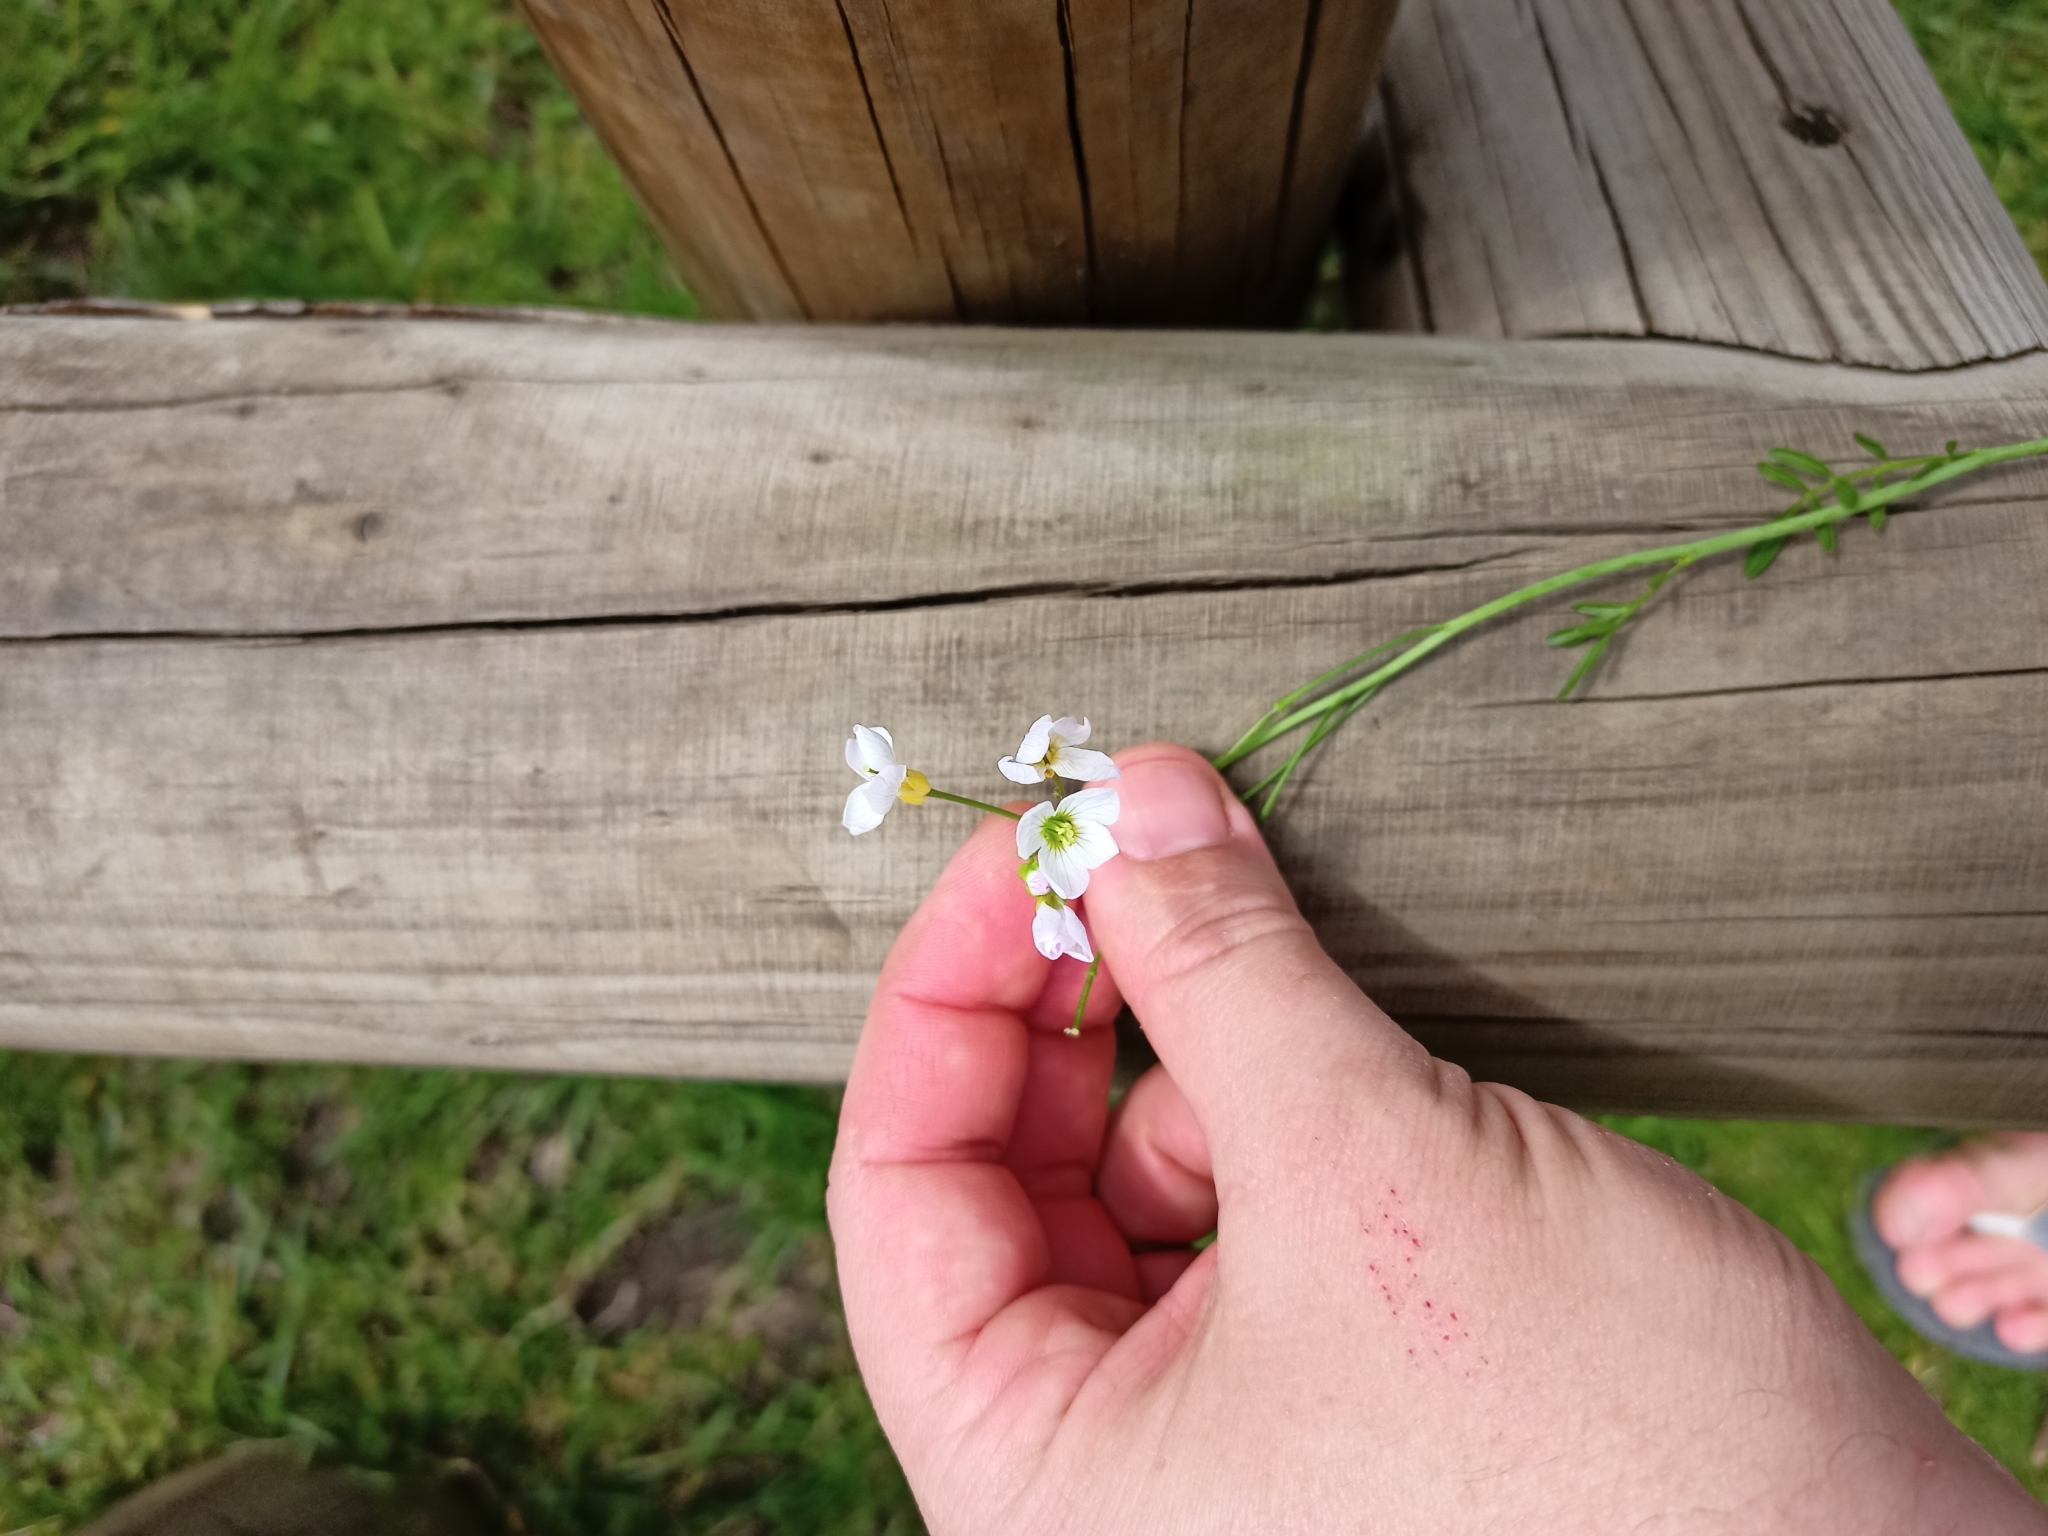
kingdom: Plantae
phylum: Tracheophyta
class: Magnoliopsida
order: Brassicales
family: Brassicaceae
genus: Cardamine
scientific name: Cardamine pratensis
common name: Cuckoo flower
